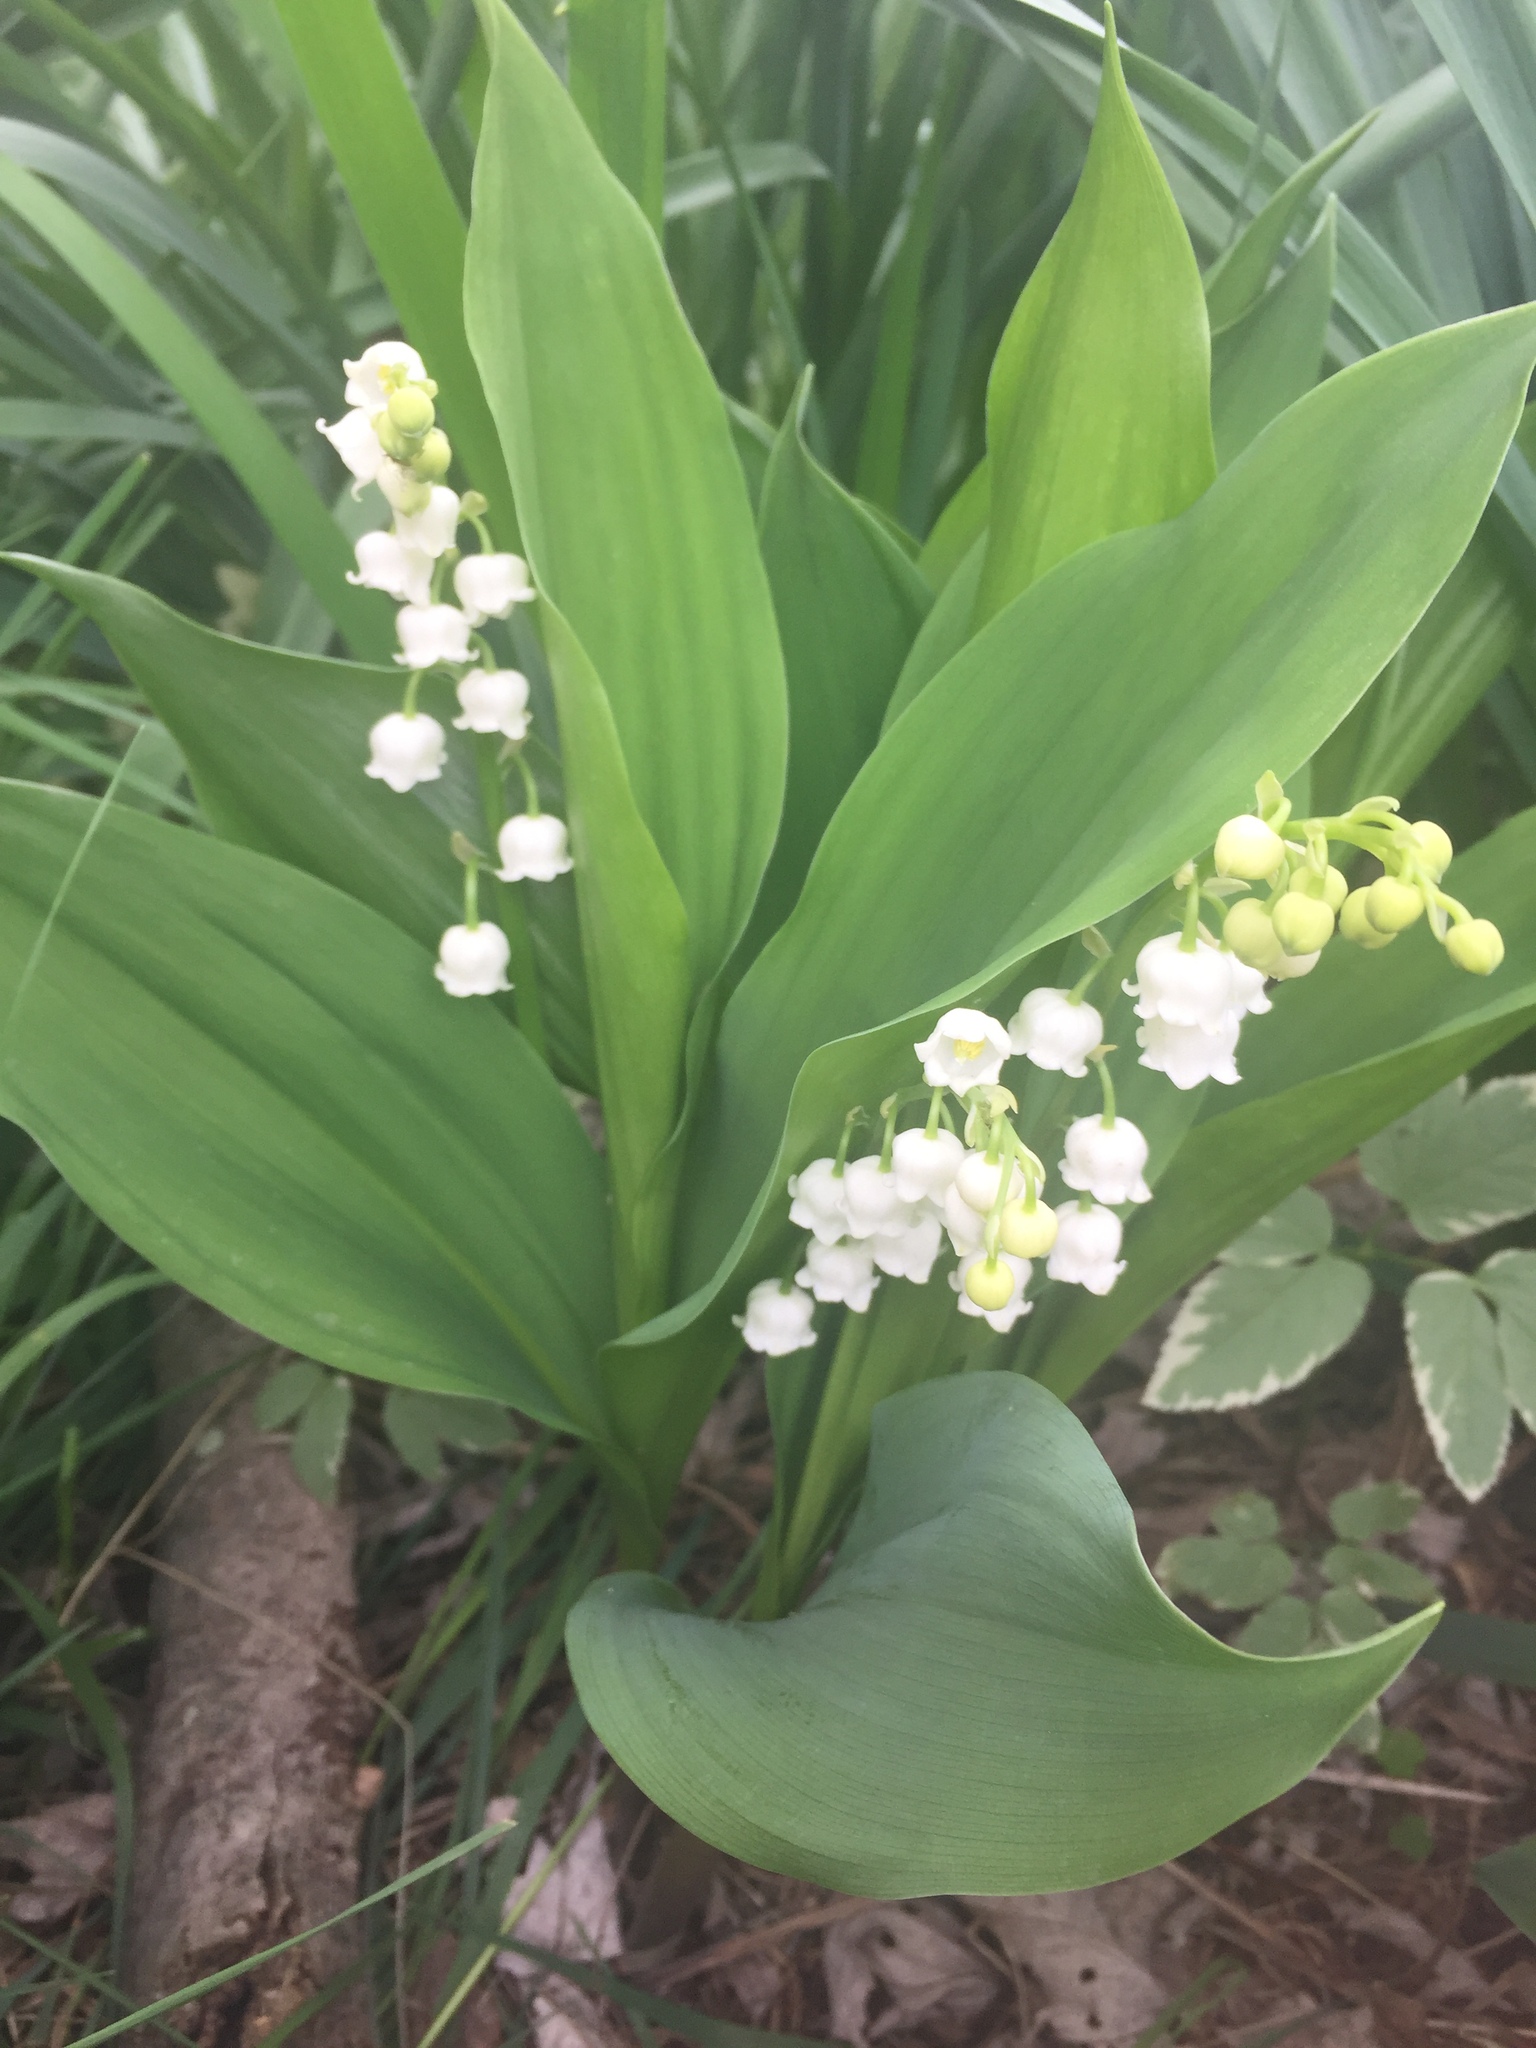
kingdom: Plantae
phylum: Tracheophyta
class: Liliopsida
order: Asparagales
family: Asparagaceae
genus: Convallaria
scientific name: Convallaria majalis
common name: Lily-of-the-valley
